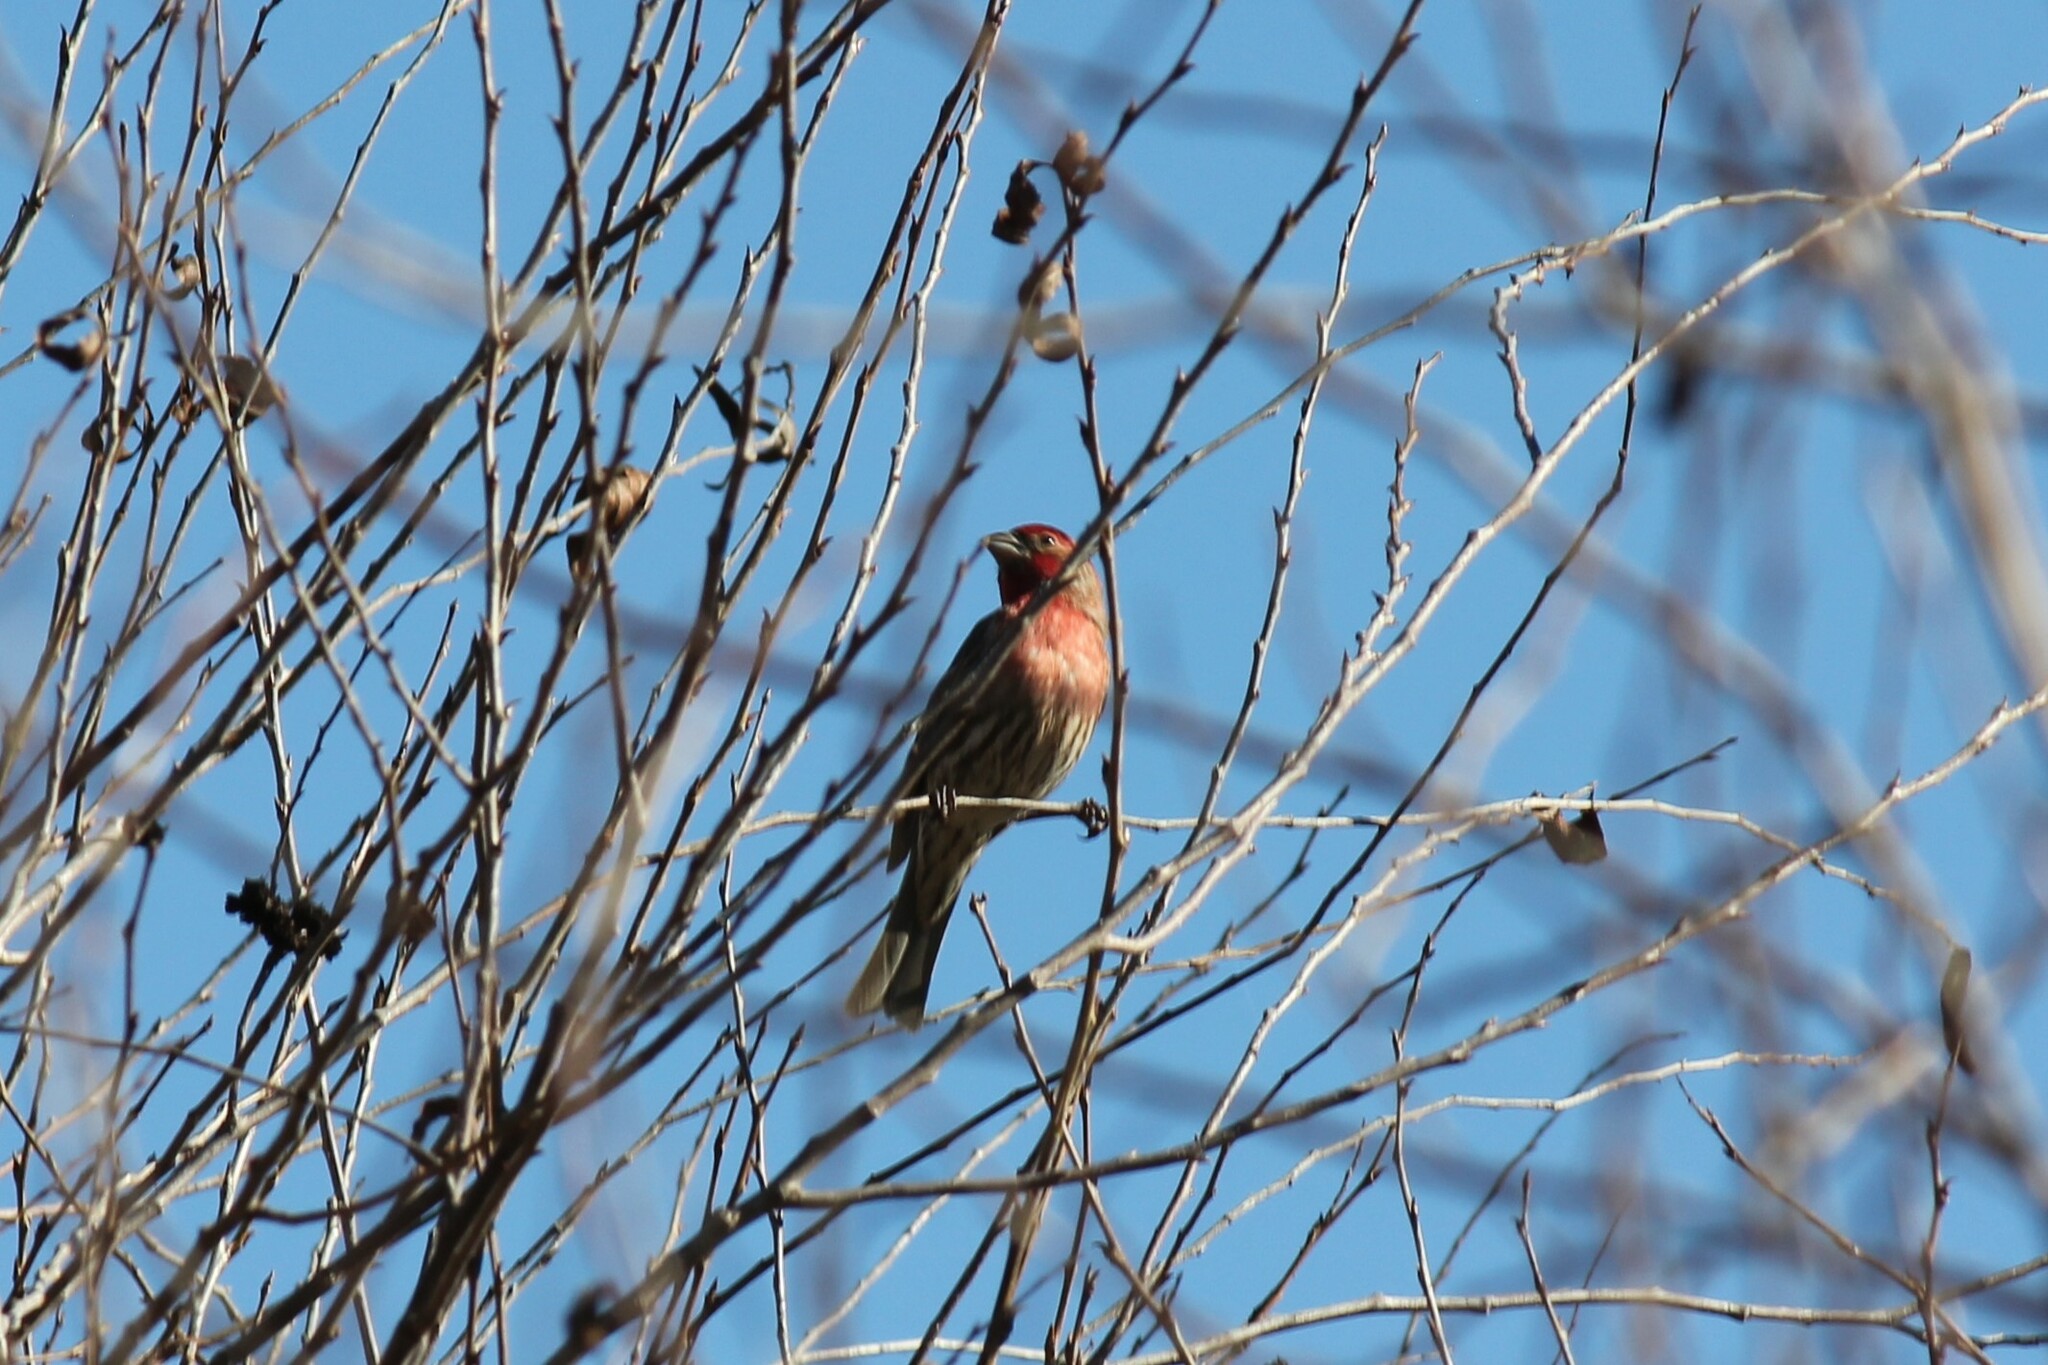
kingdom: Animalia
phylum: Chordata
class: Aves
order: Passeriformes
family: Fringillidae
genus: Haemorhous
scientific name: Haemorhous mexicanus
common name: House finch
